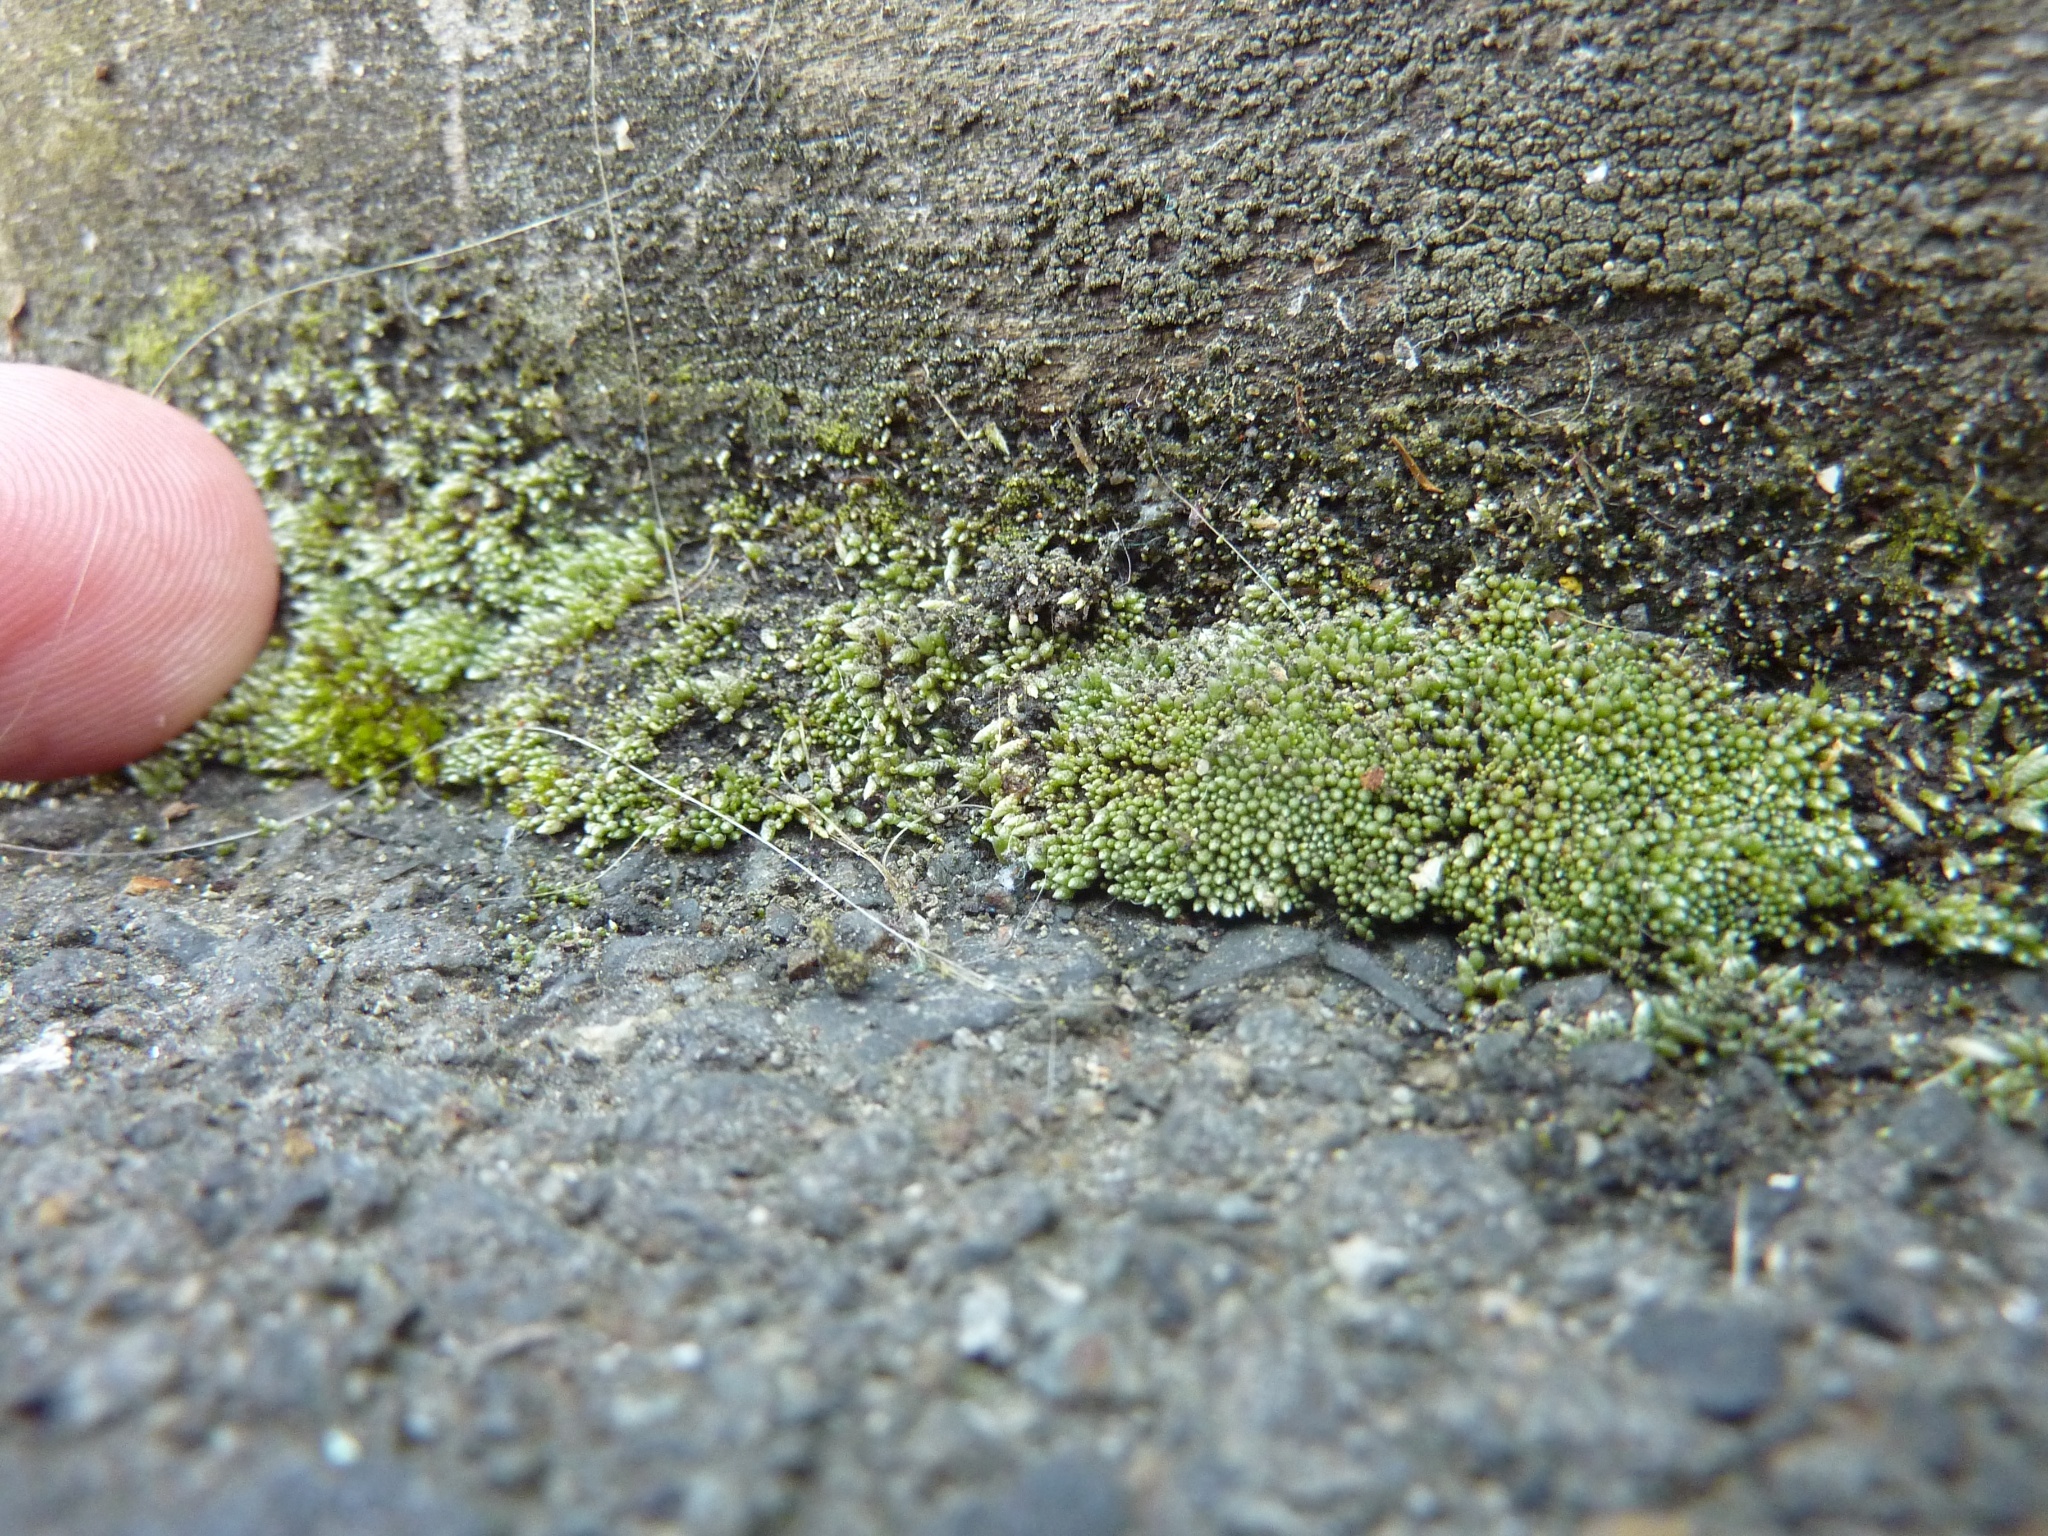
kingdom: Plantae
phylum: Bryophyta
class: Bryopsida
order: Bryales
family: Bryaceae
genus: Bryum
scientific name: Bryum argenteum
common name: Silver-moss
